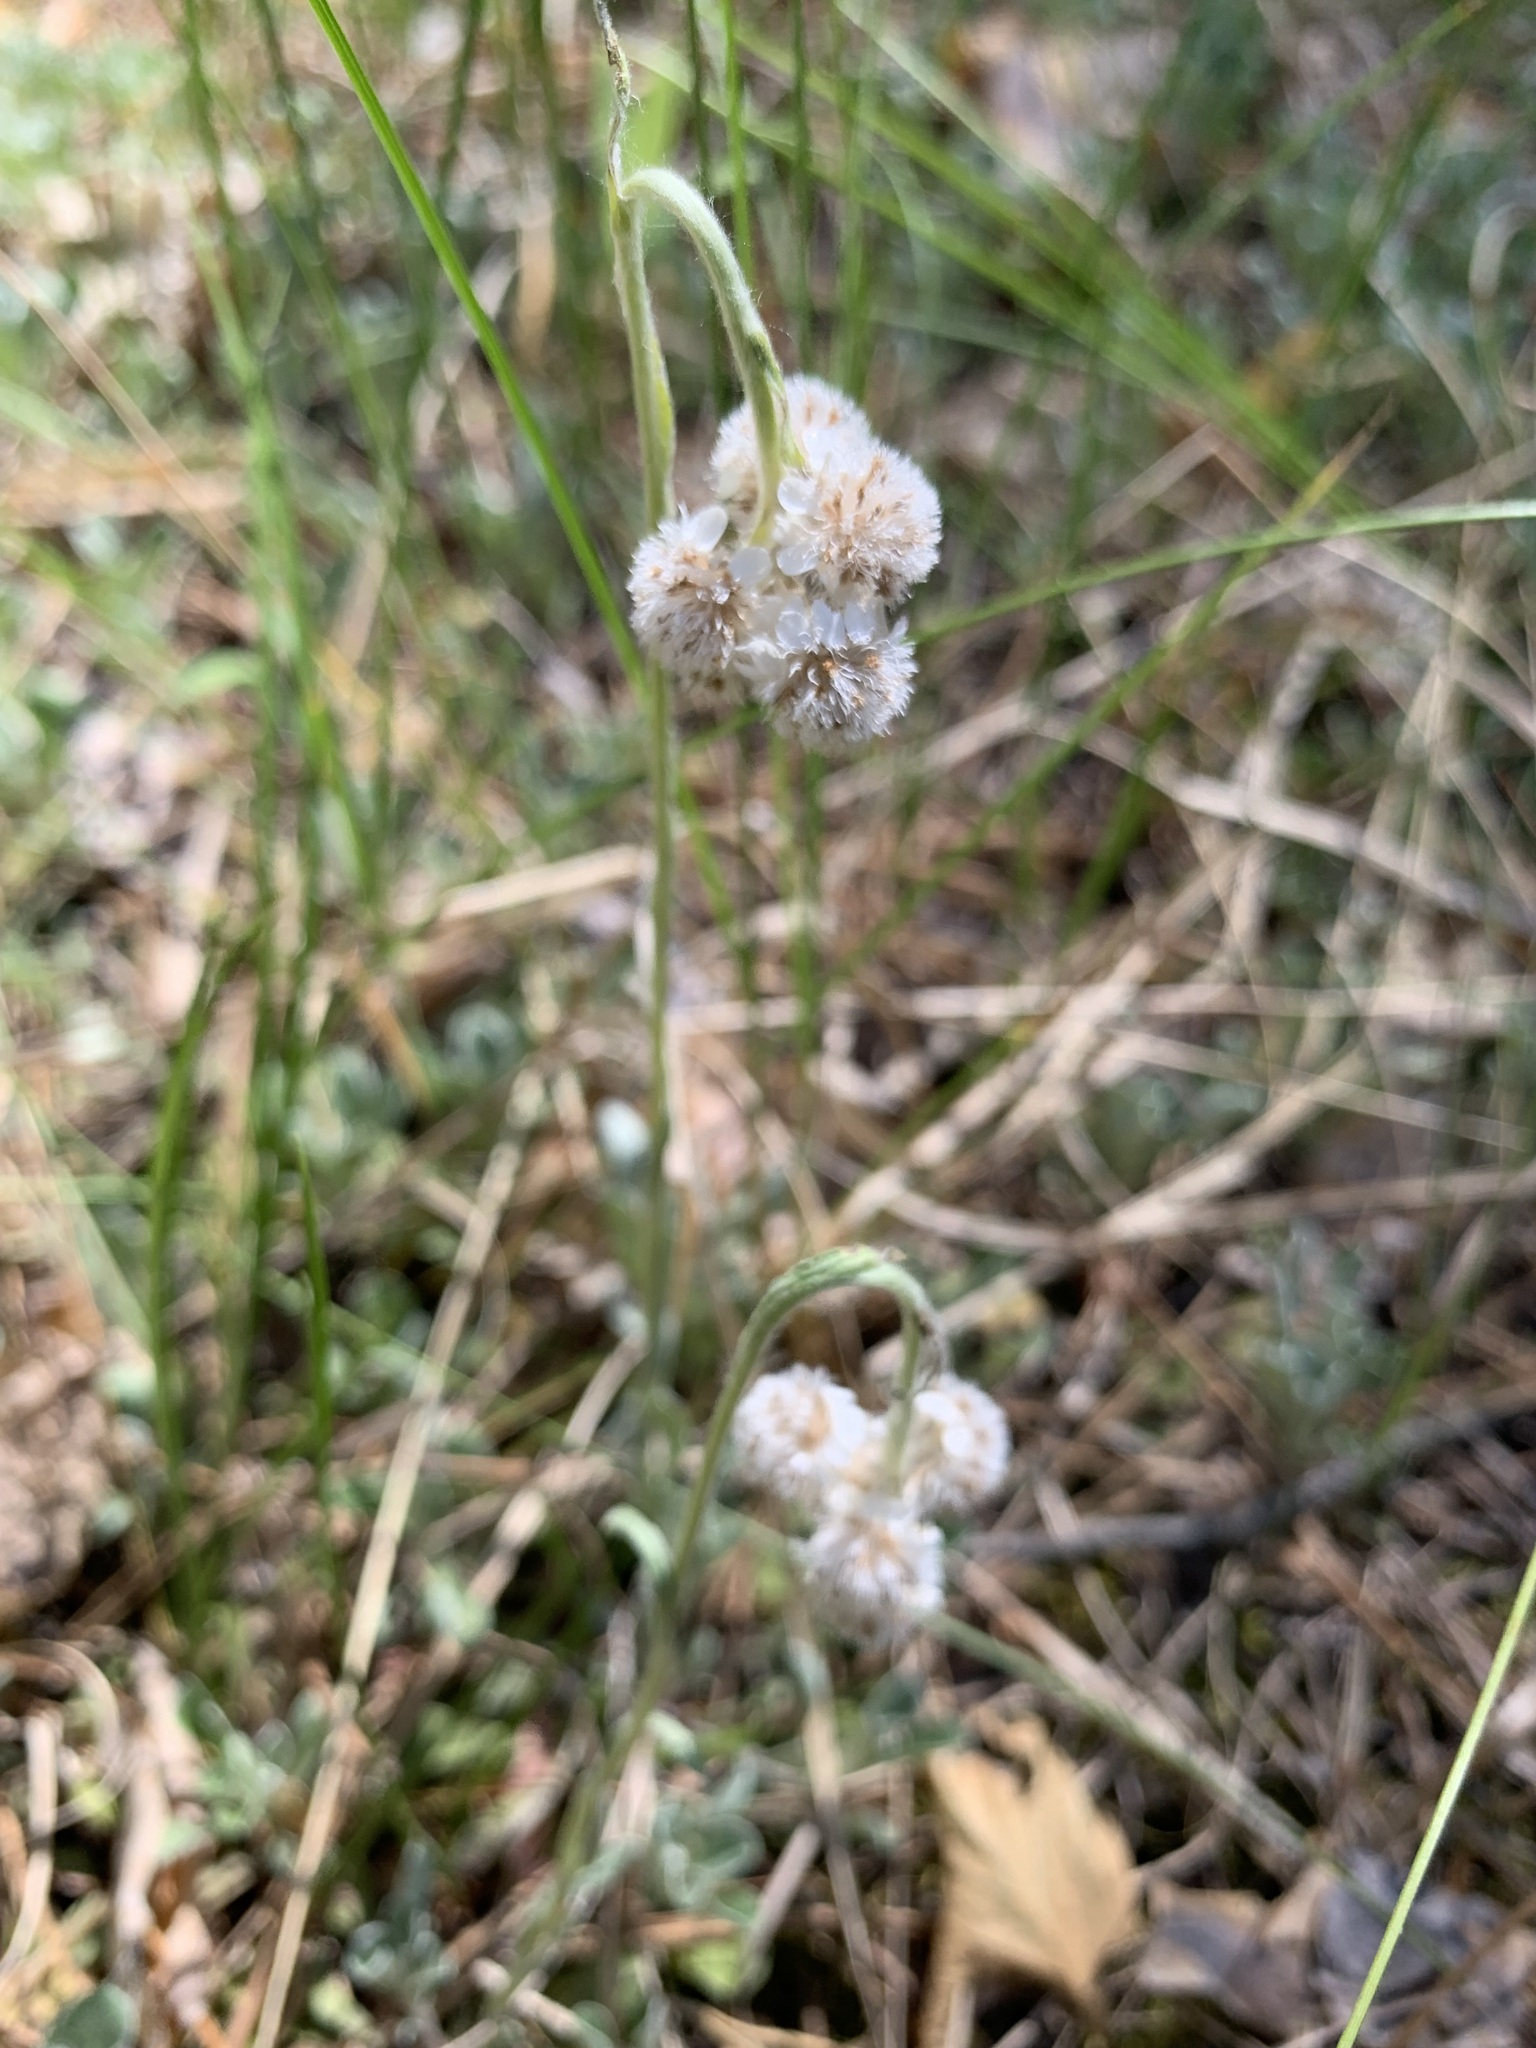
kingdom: Plantae
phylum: Tracheophyta
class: Magnoliopsida
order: Asterales
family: Asteraceae
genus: Antennaria
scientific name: Antennaria dioica
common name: Mountain everlasting
